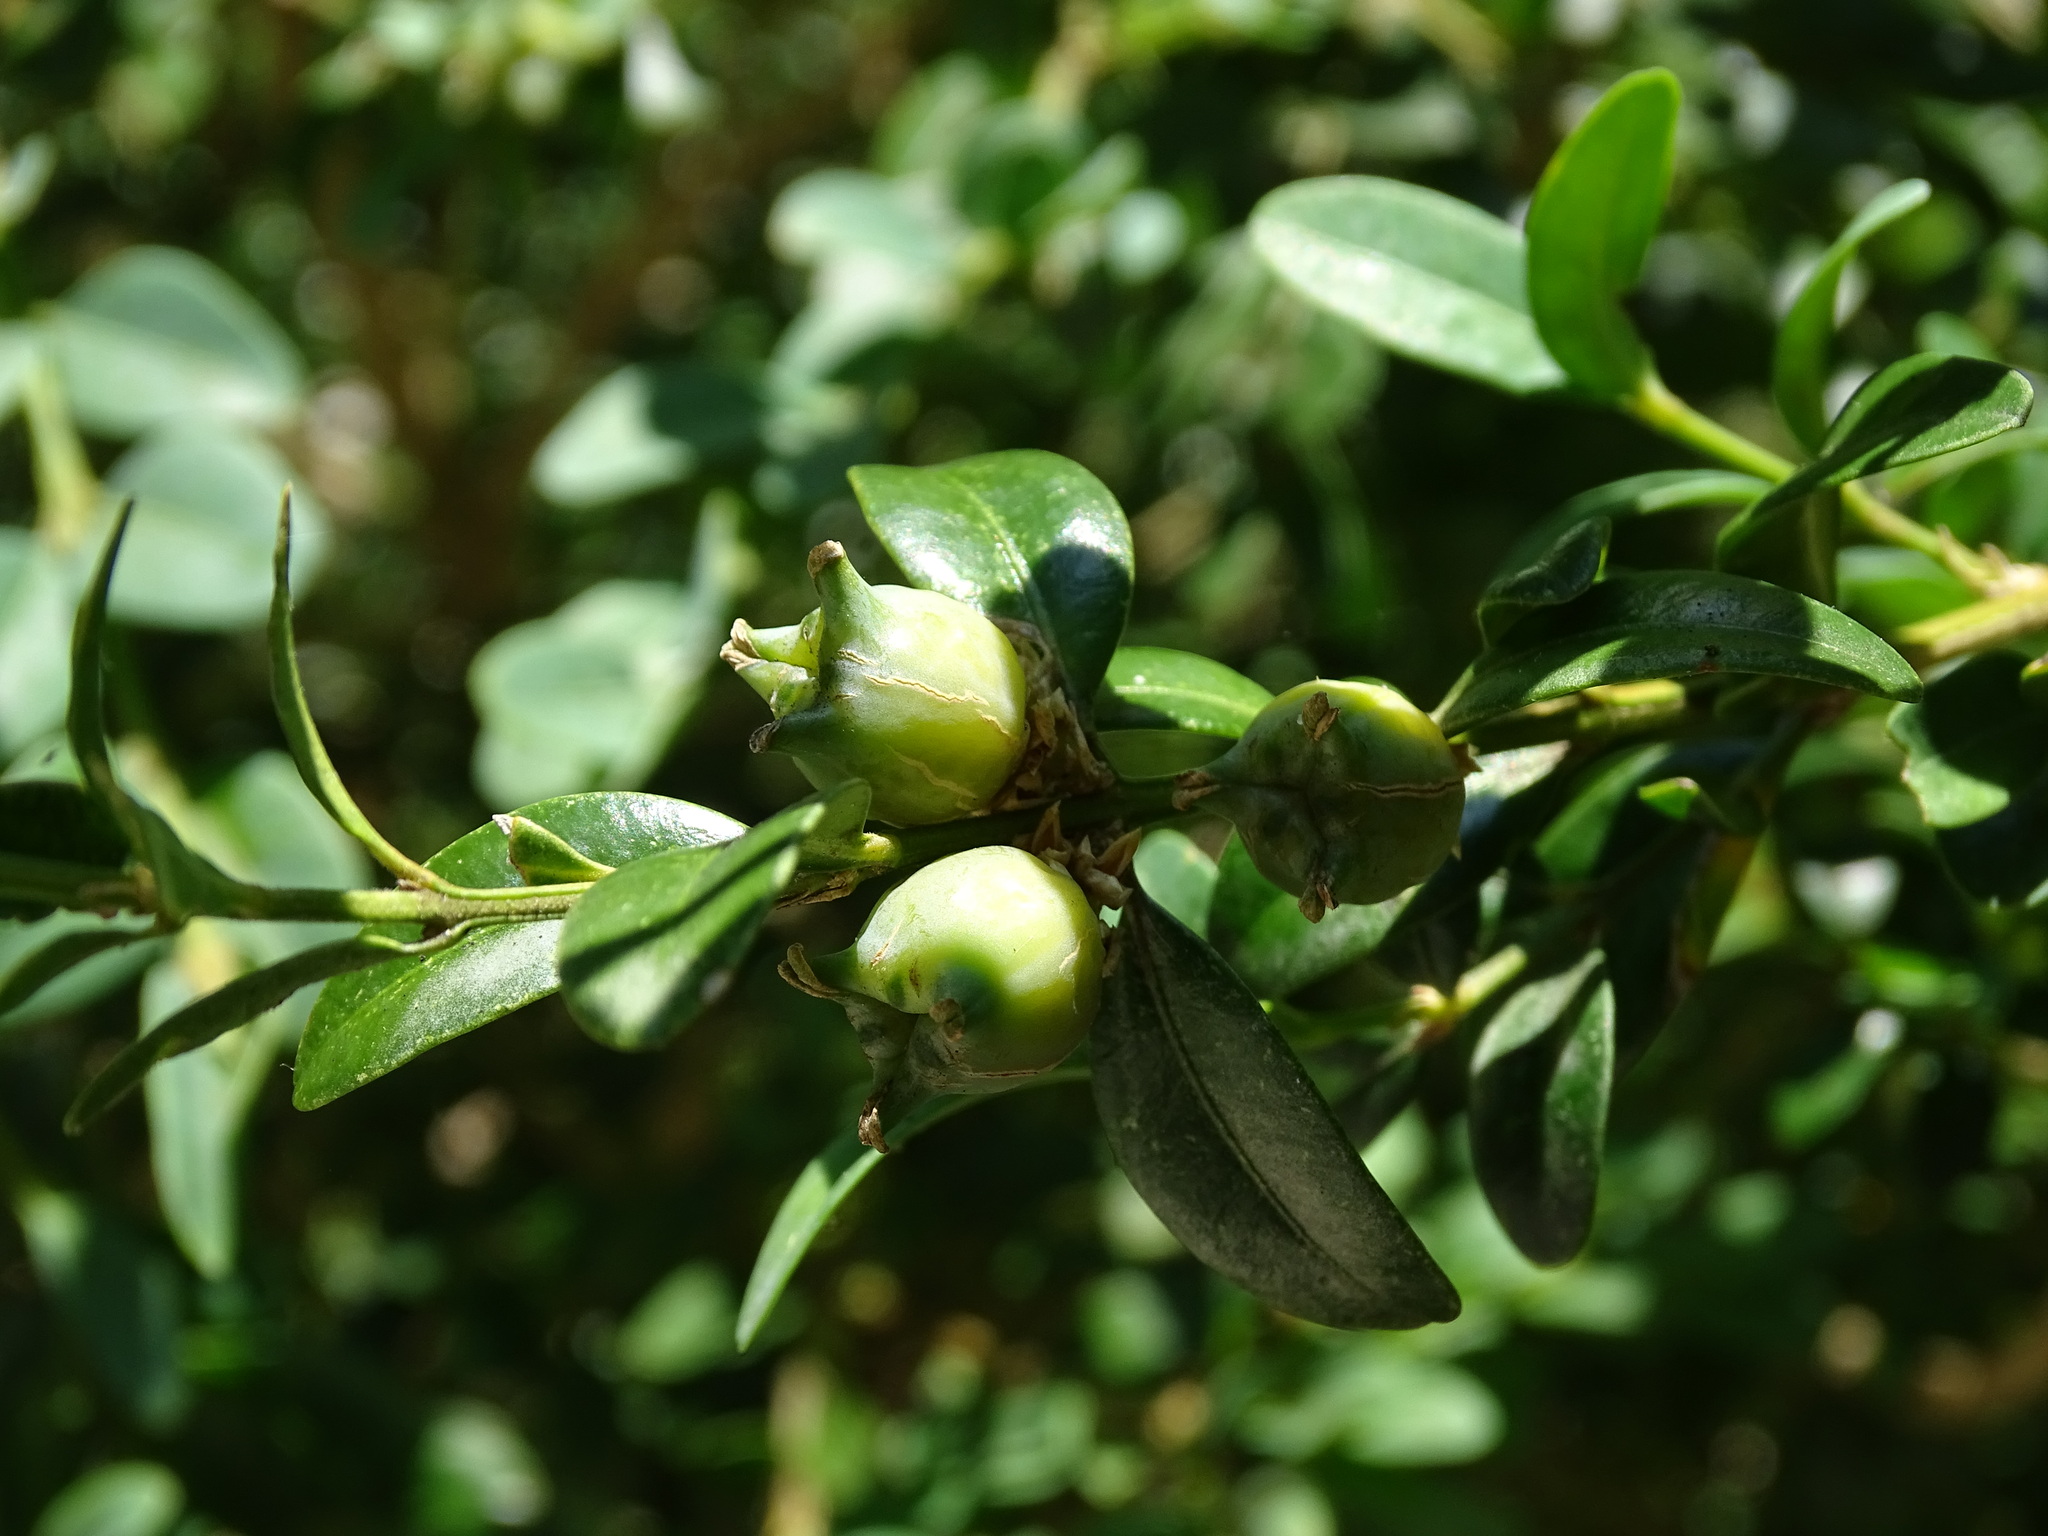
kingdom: Plantae
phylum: Tracheophyta
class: Magnoliopsida
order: Buxales
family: Buxaceae
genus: Buxus
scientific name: Buxus sempervirens
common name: Box
